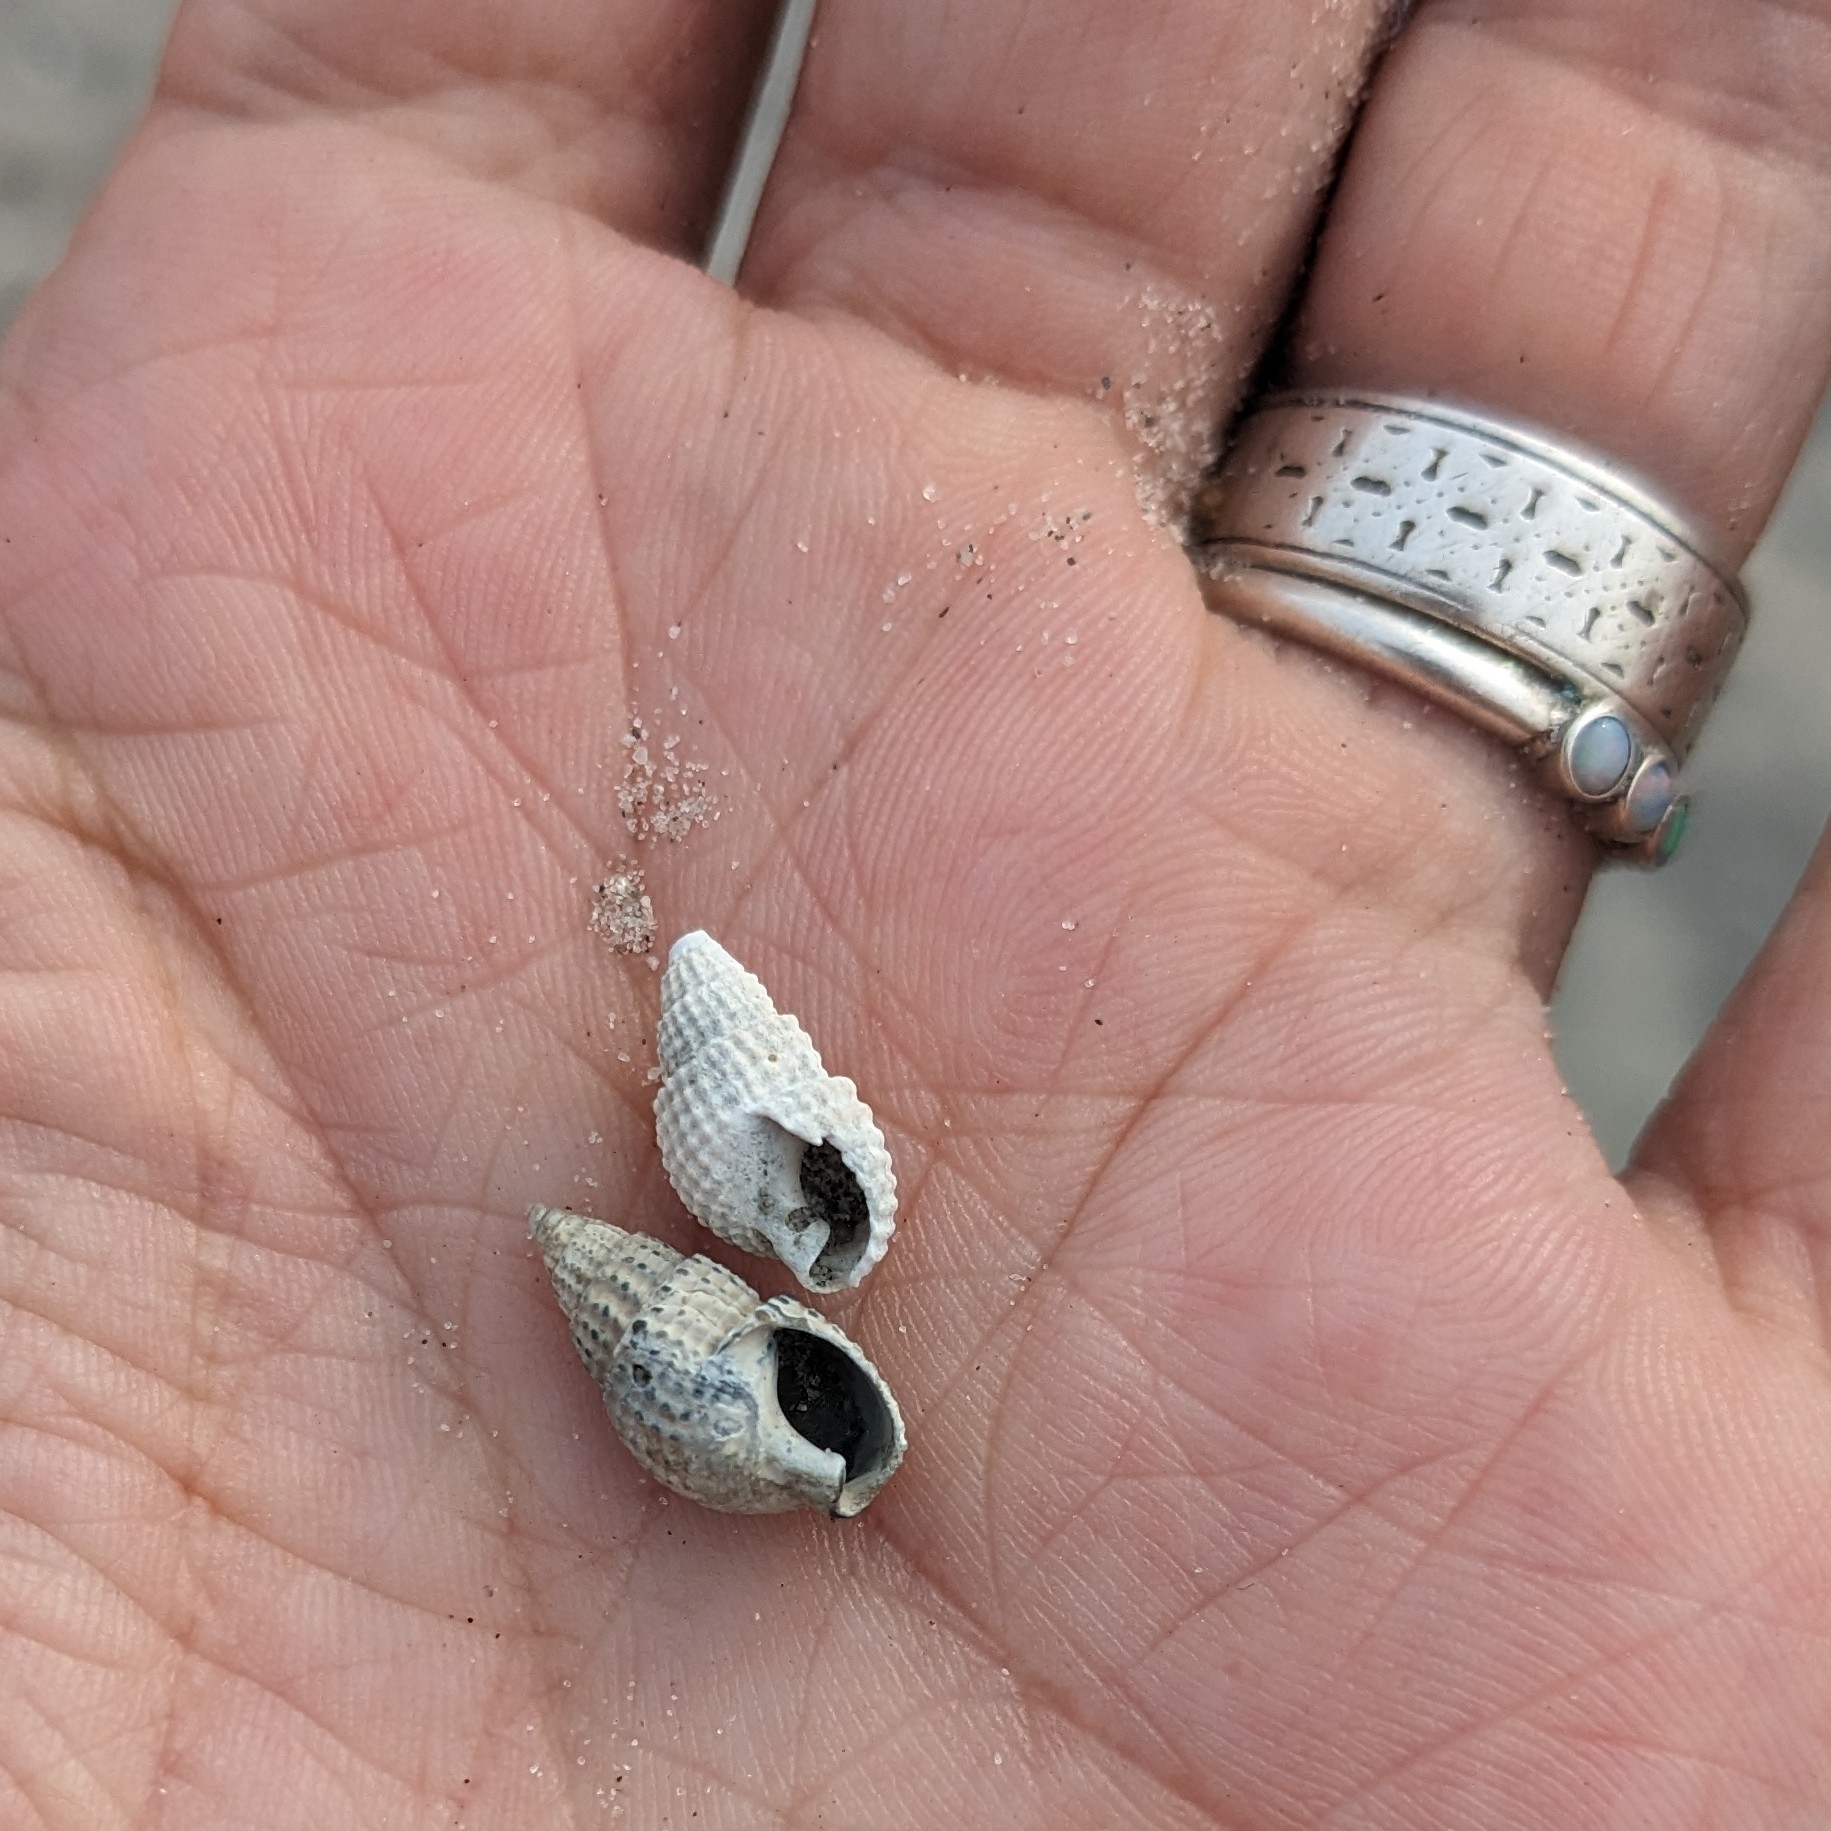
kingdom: Animalia
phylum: Mollusca
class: Gastropoda
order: Neogastropoda
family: Nassariidae
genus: Ilyanassa
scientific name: Ilyanassa trivittata
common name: Three-line mudsnail
